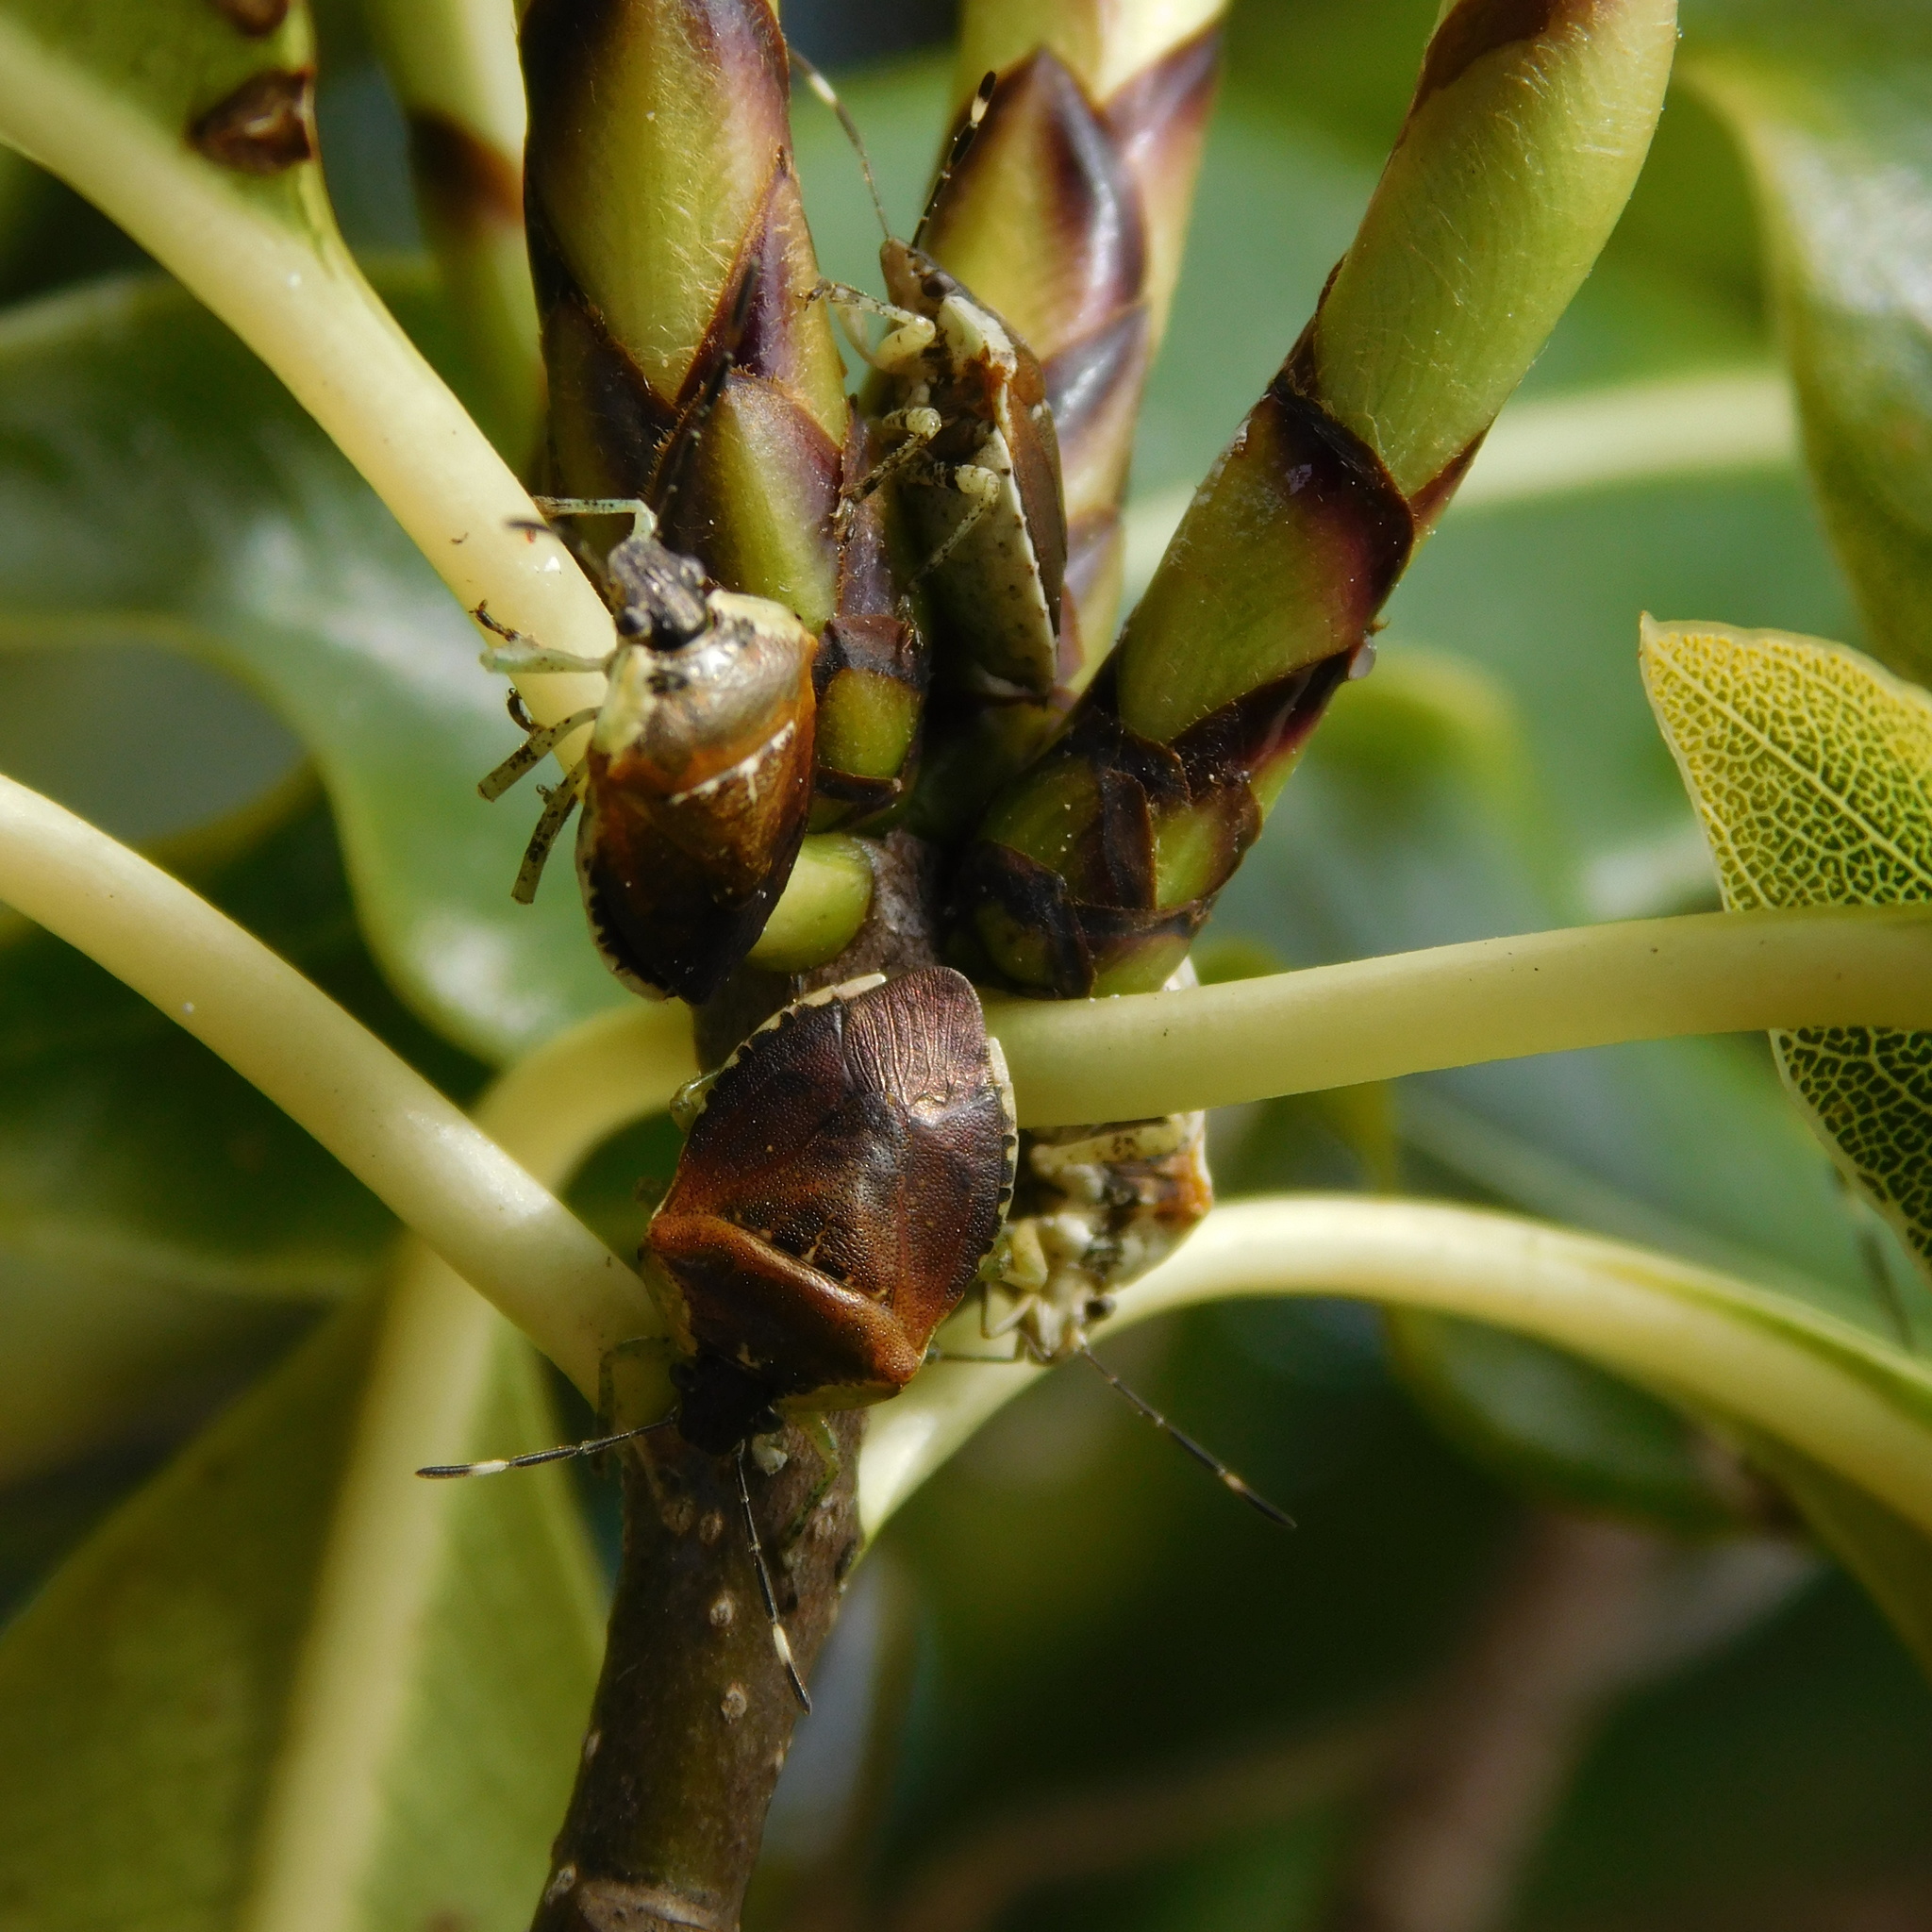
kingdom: Animalia
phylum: Arthropoda
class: Insecta
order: Hemiptera
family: Pentatomidae
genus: Monteithiella
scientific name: Monteithiella
